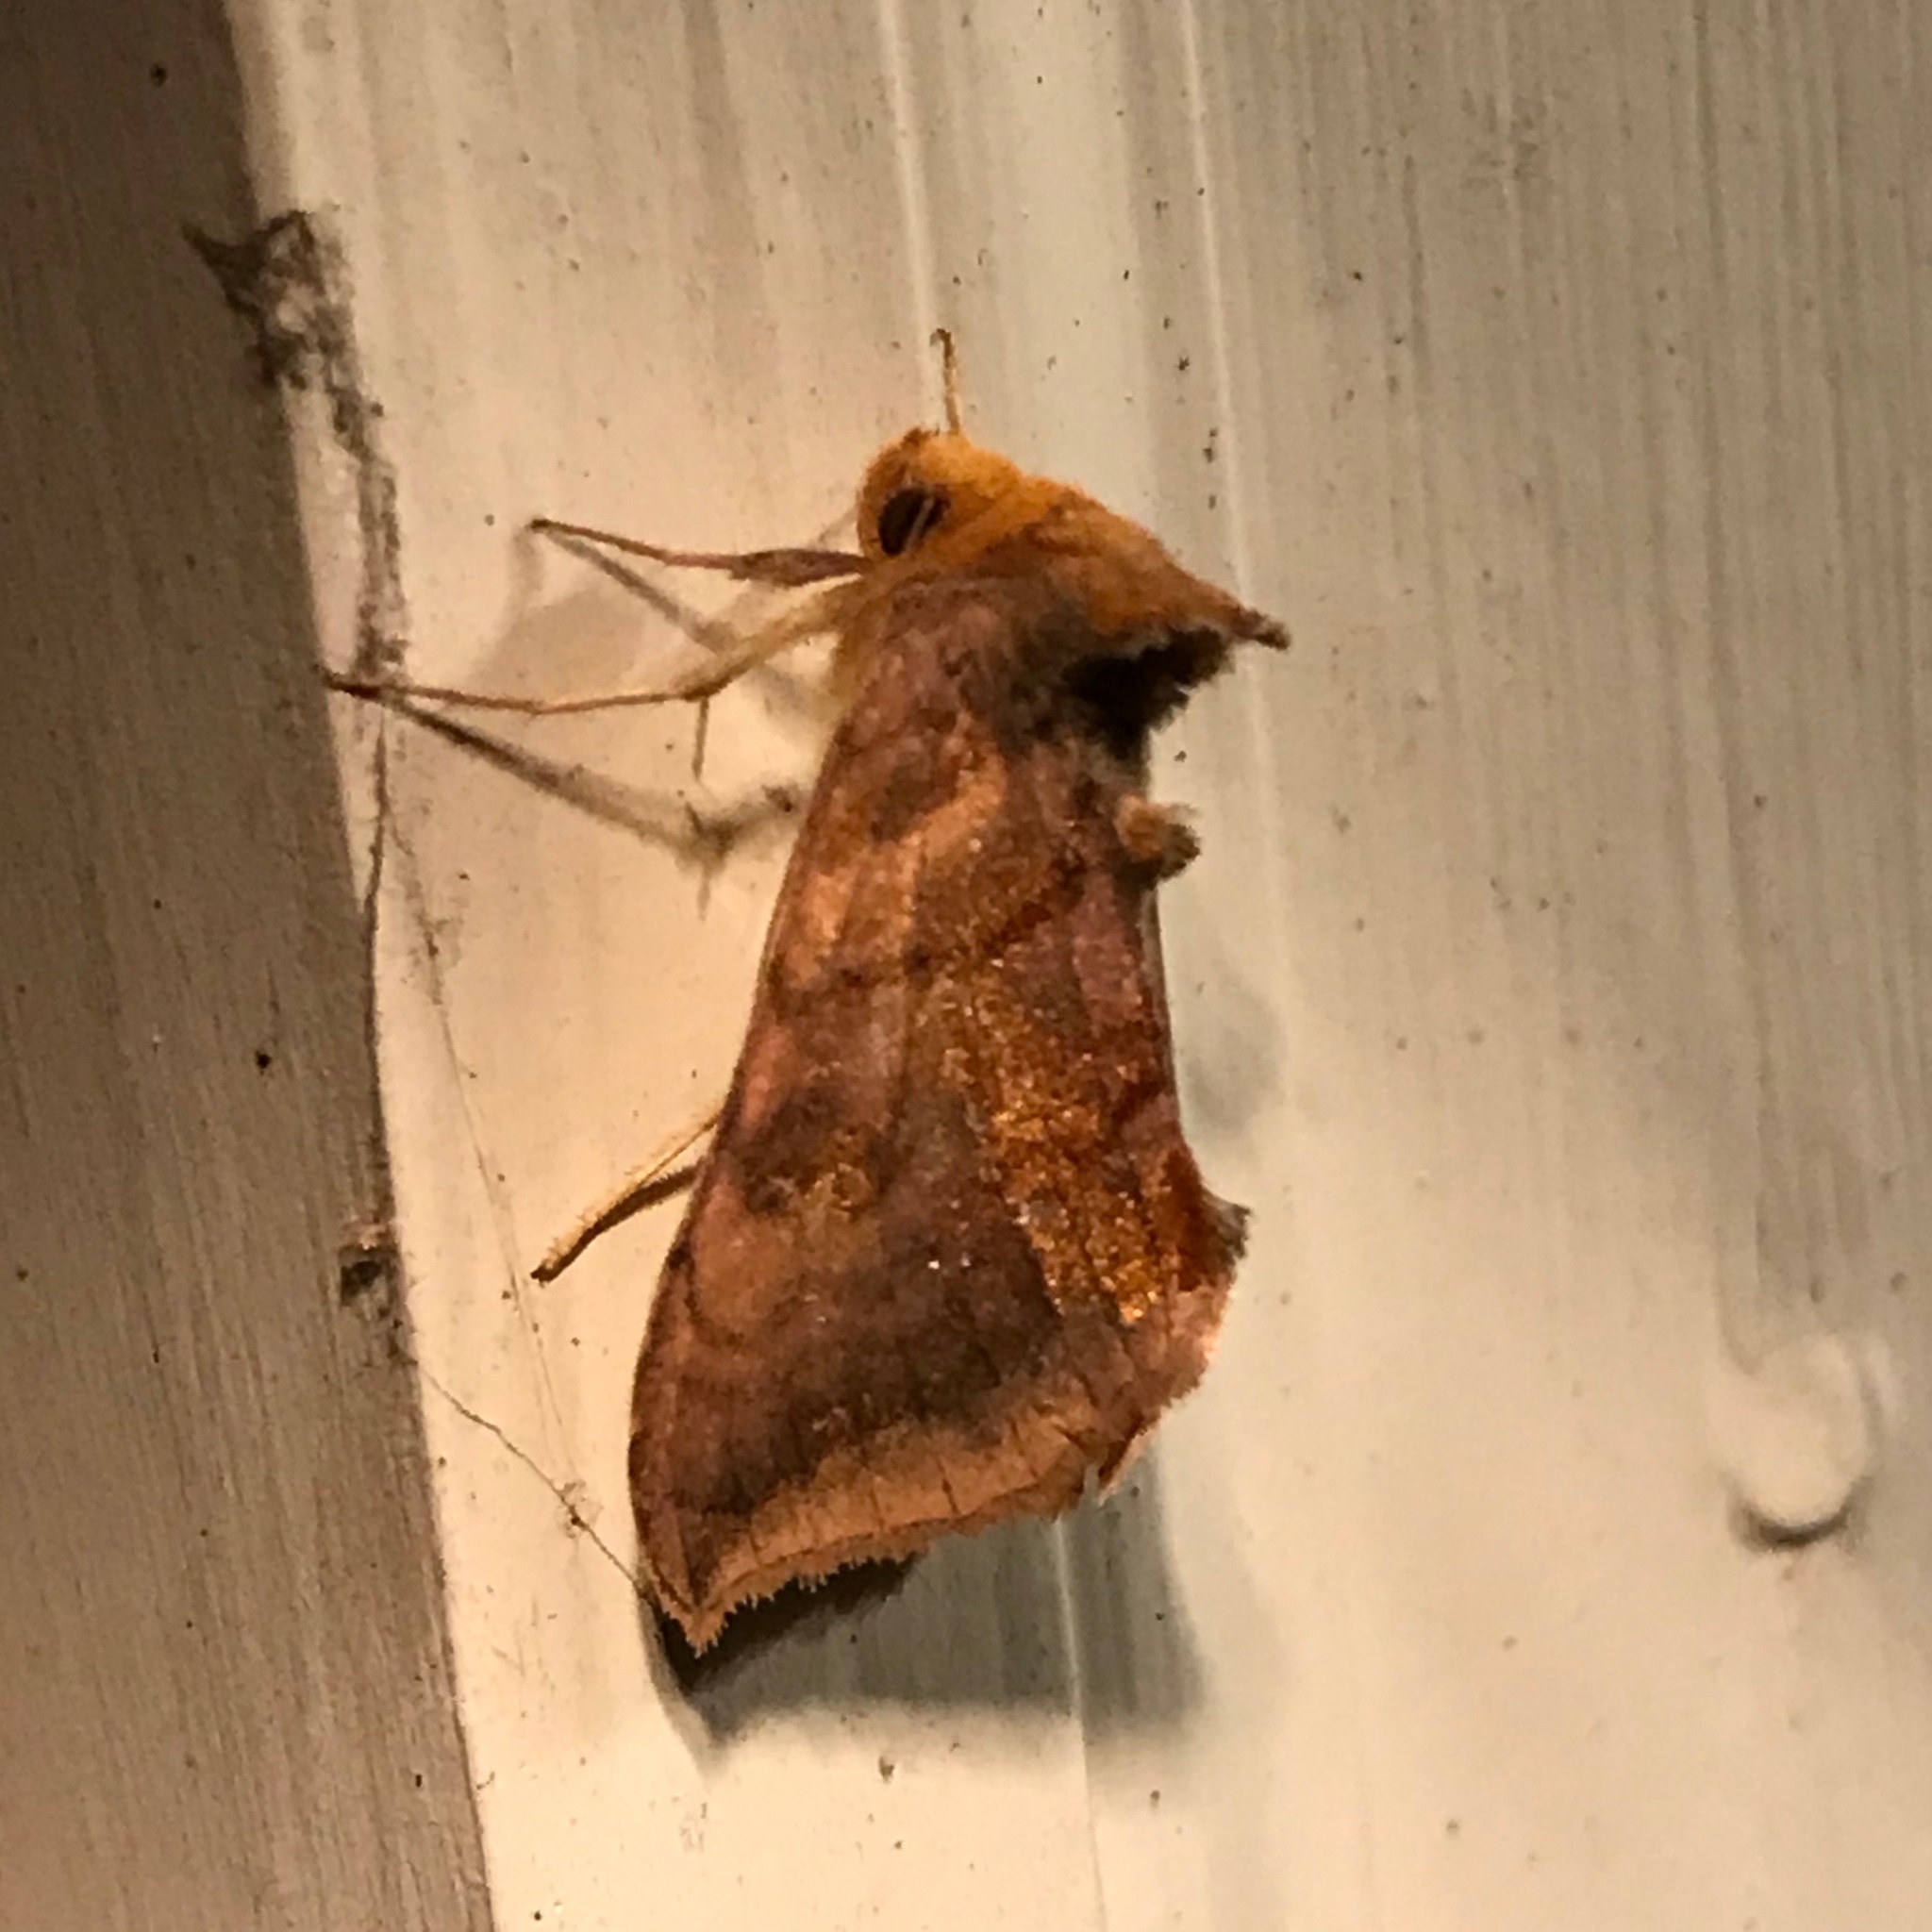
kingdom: Animalia
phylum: Arthropoda
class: Insecta
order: Lepidoptera
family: Noctuidae
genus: Allagrapha
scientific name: Allagrapha aerea
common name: Unspotted looper moth
